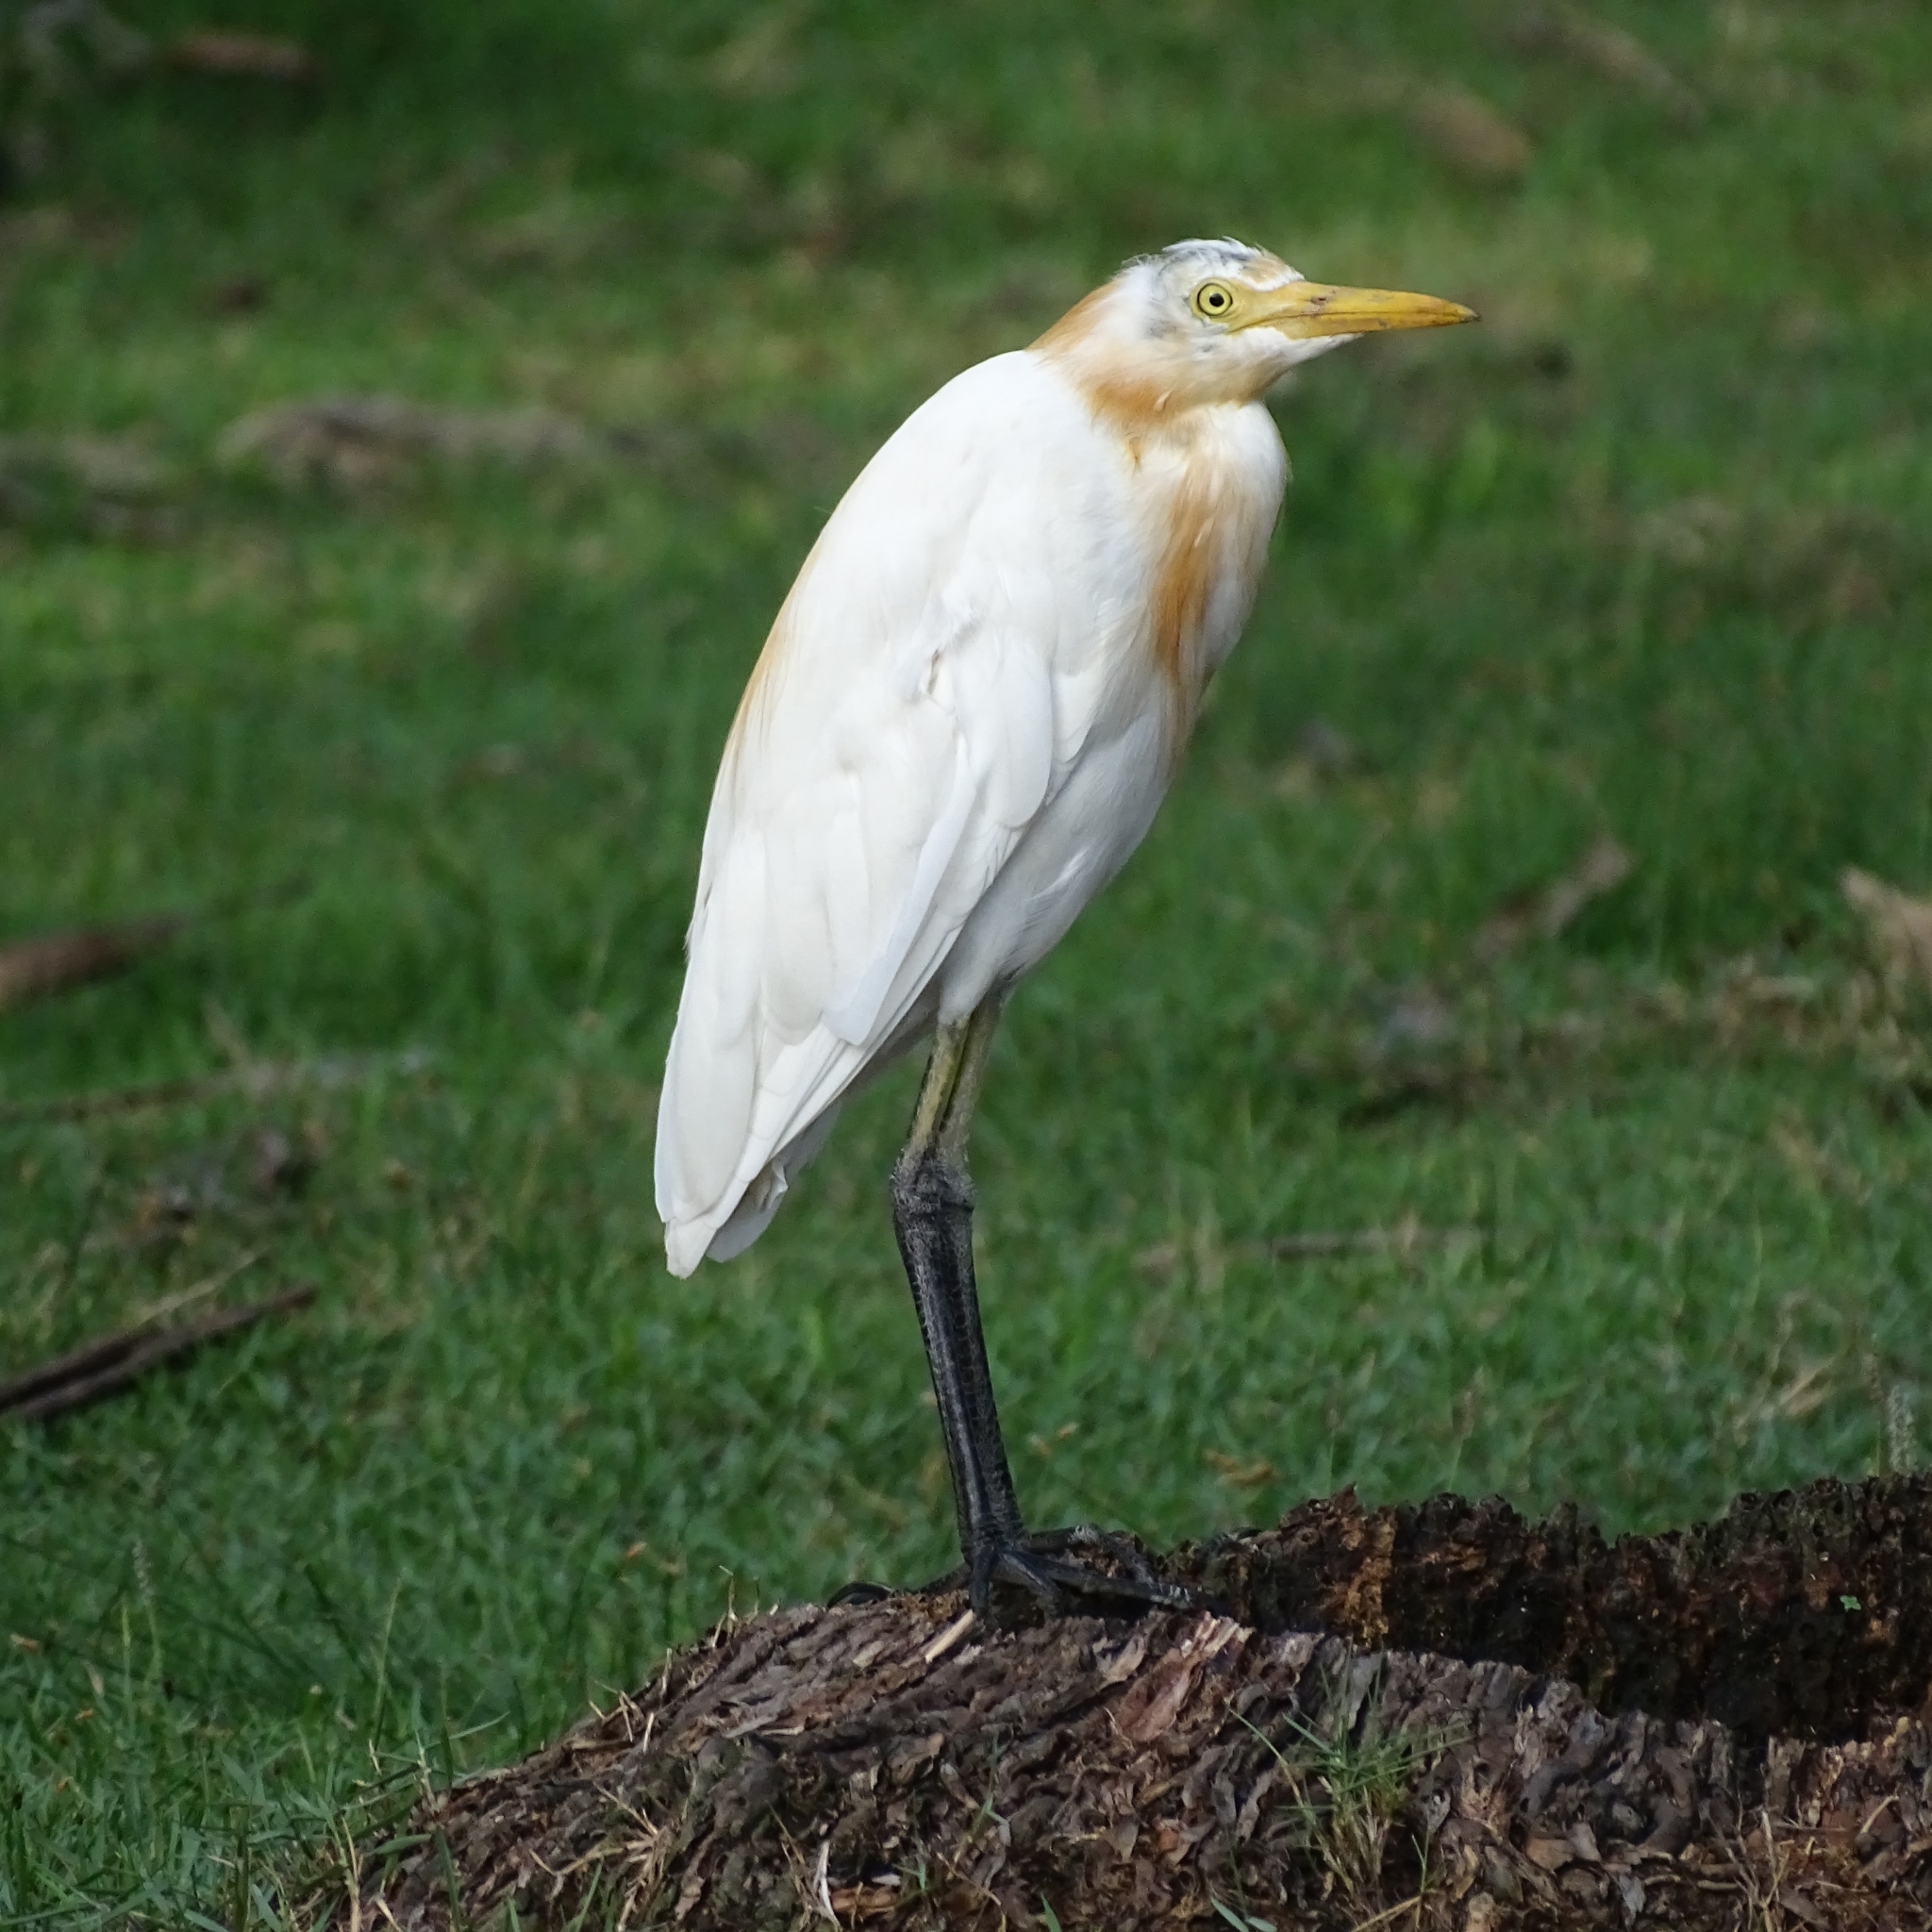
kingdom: Animalia
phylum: Chordata
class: Aves
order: Pelecaniformes
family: Ardeidae
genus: Bubulcus
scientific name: Bubulcus coromandus
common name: Eastern cattle egret
